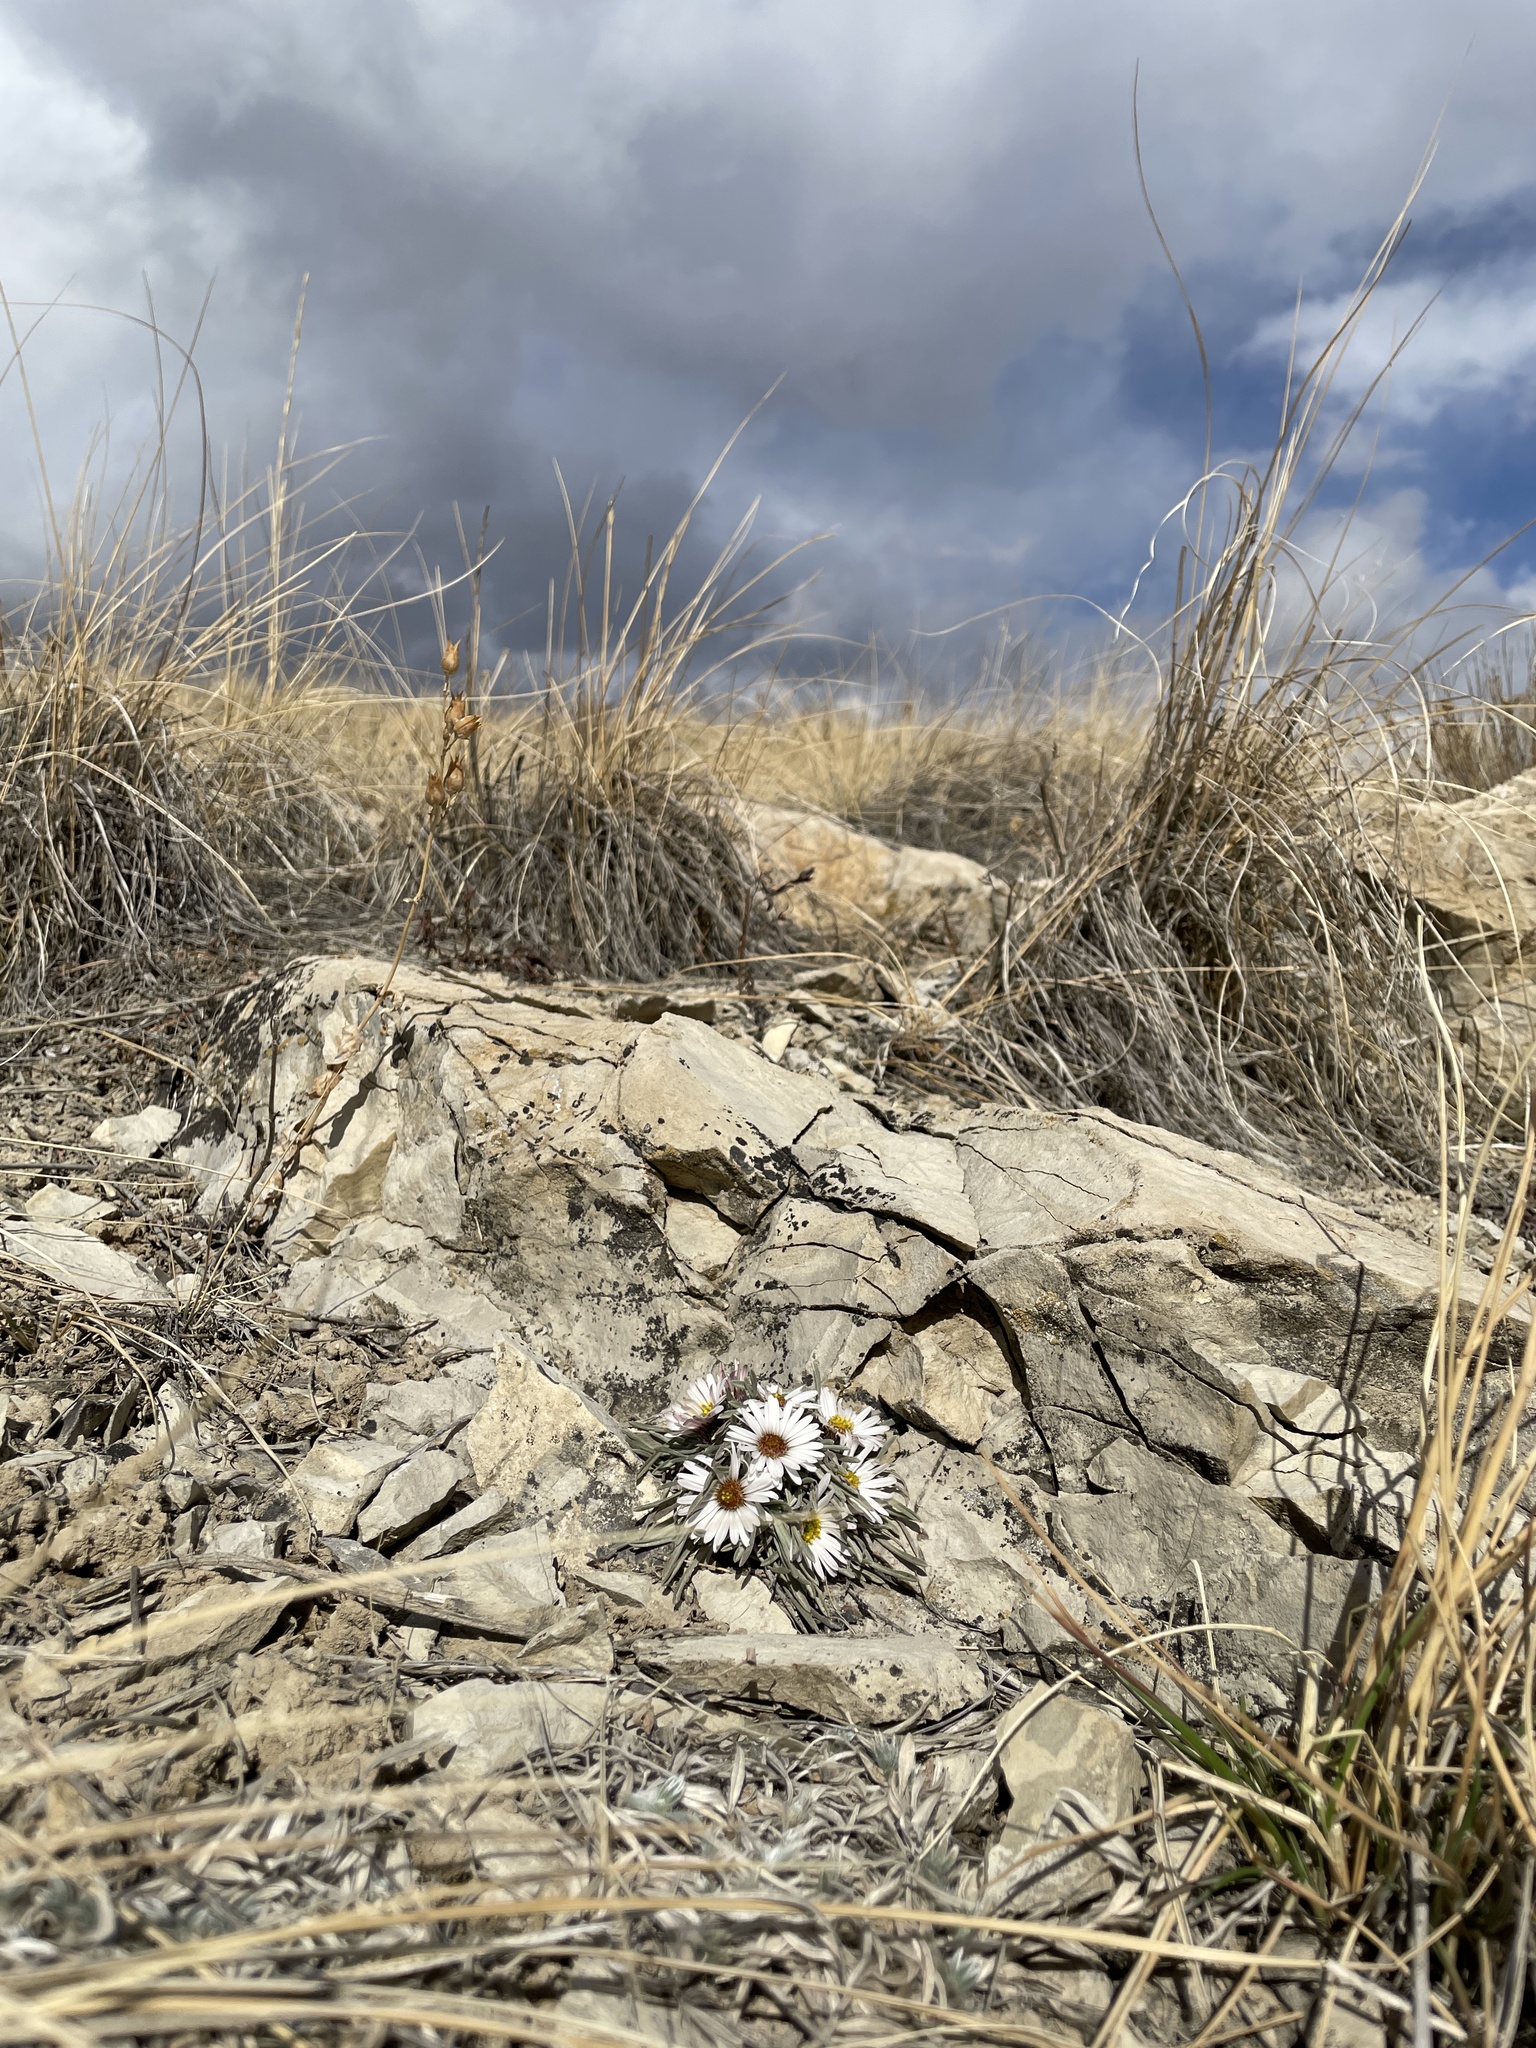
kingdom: Plantae
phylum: Tracheophyta
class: Magnoliopsida
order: Asterales
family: Asteraceae
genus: Townsendia
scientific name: Townsendia hookeri
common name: Hooker's townsend daisy
